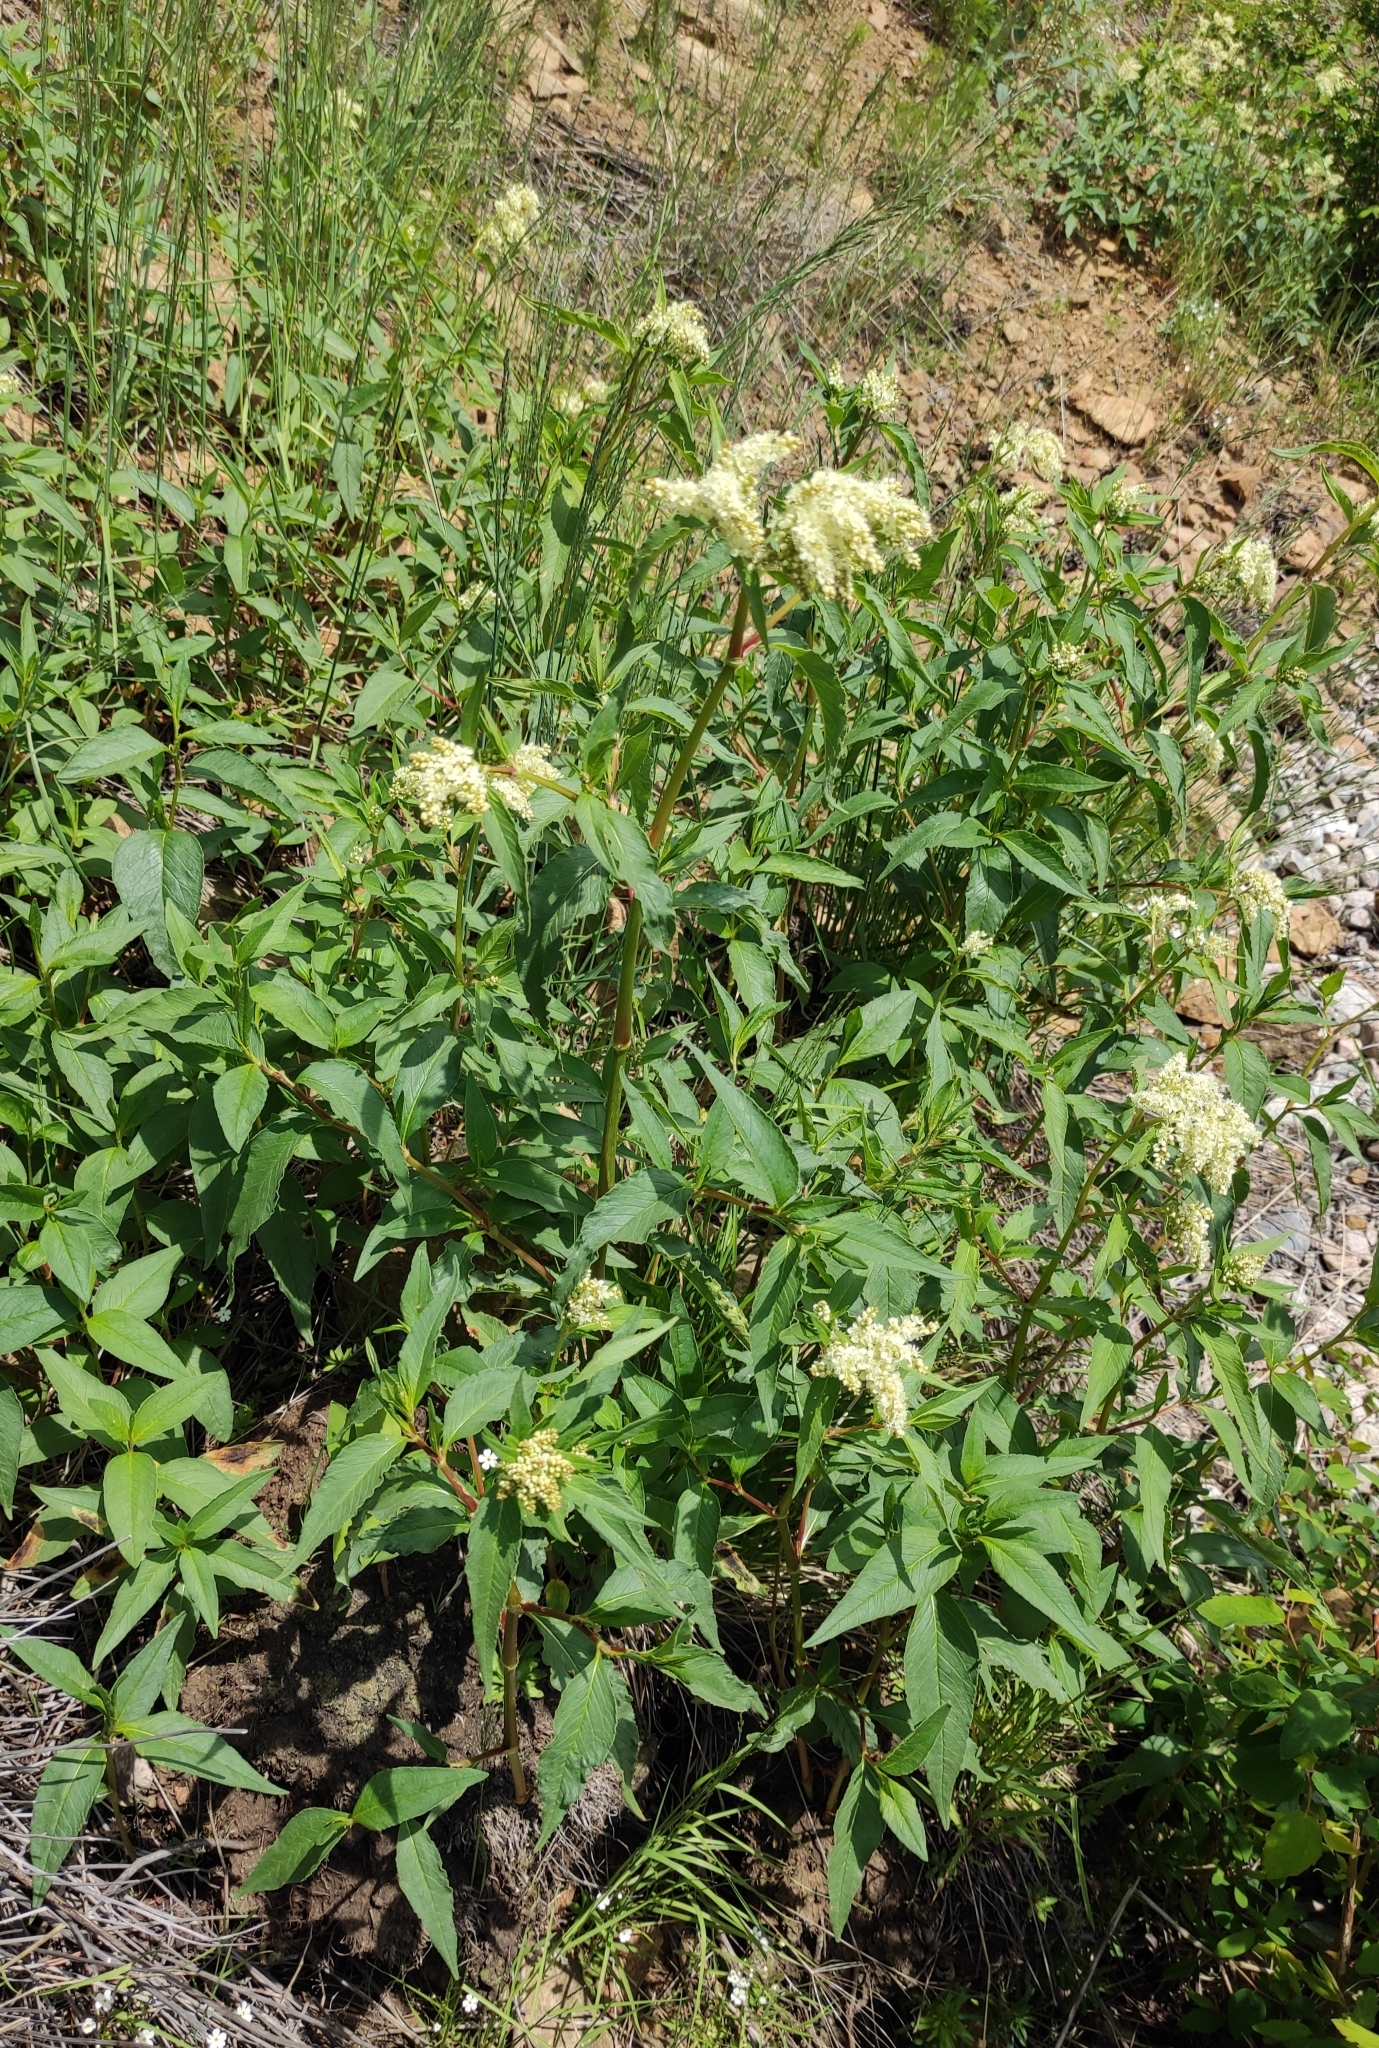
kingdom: Plantae
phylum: Tracheophyta
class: Magnoliopsida
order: Caryophyllales
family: Polygonaceae
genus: Koenigia
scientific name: Koenigia alpina
